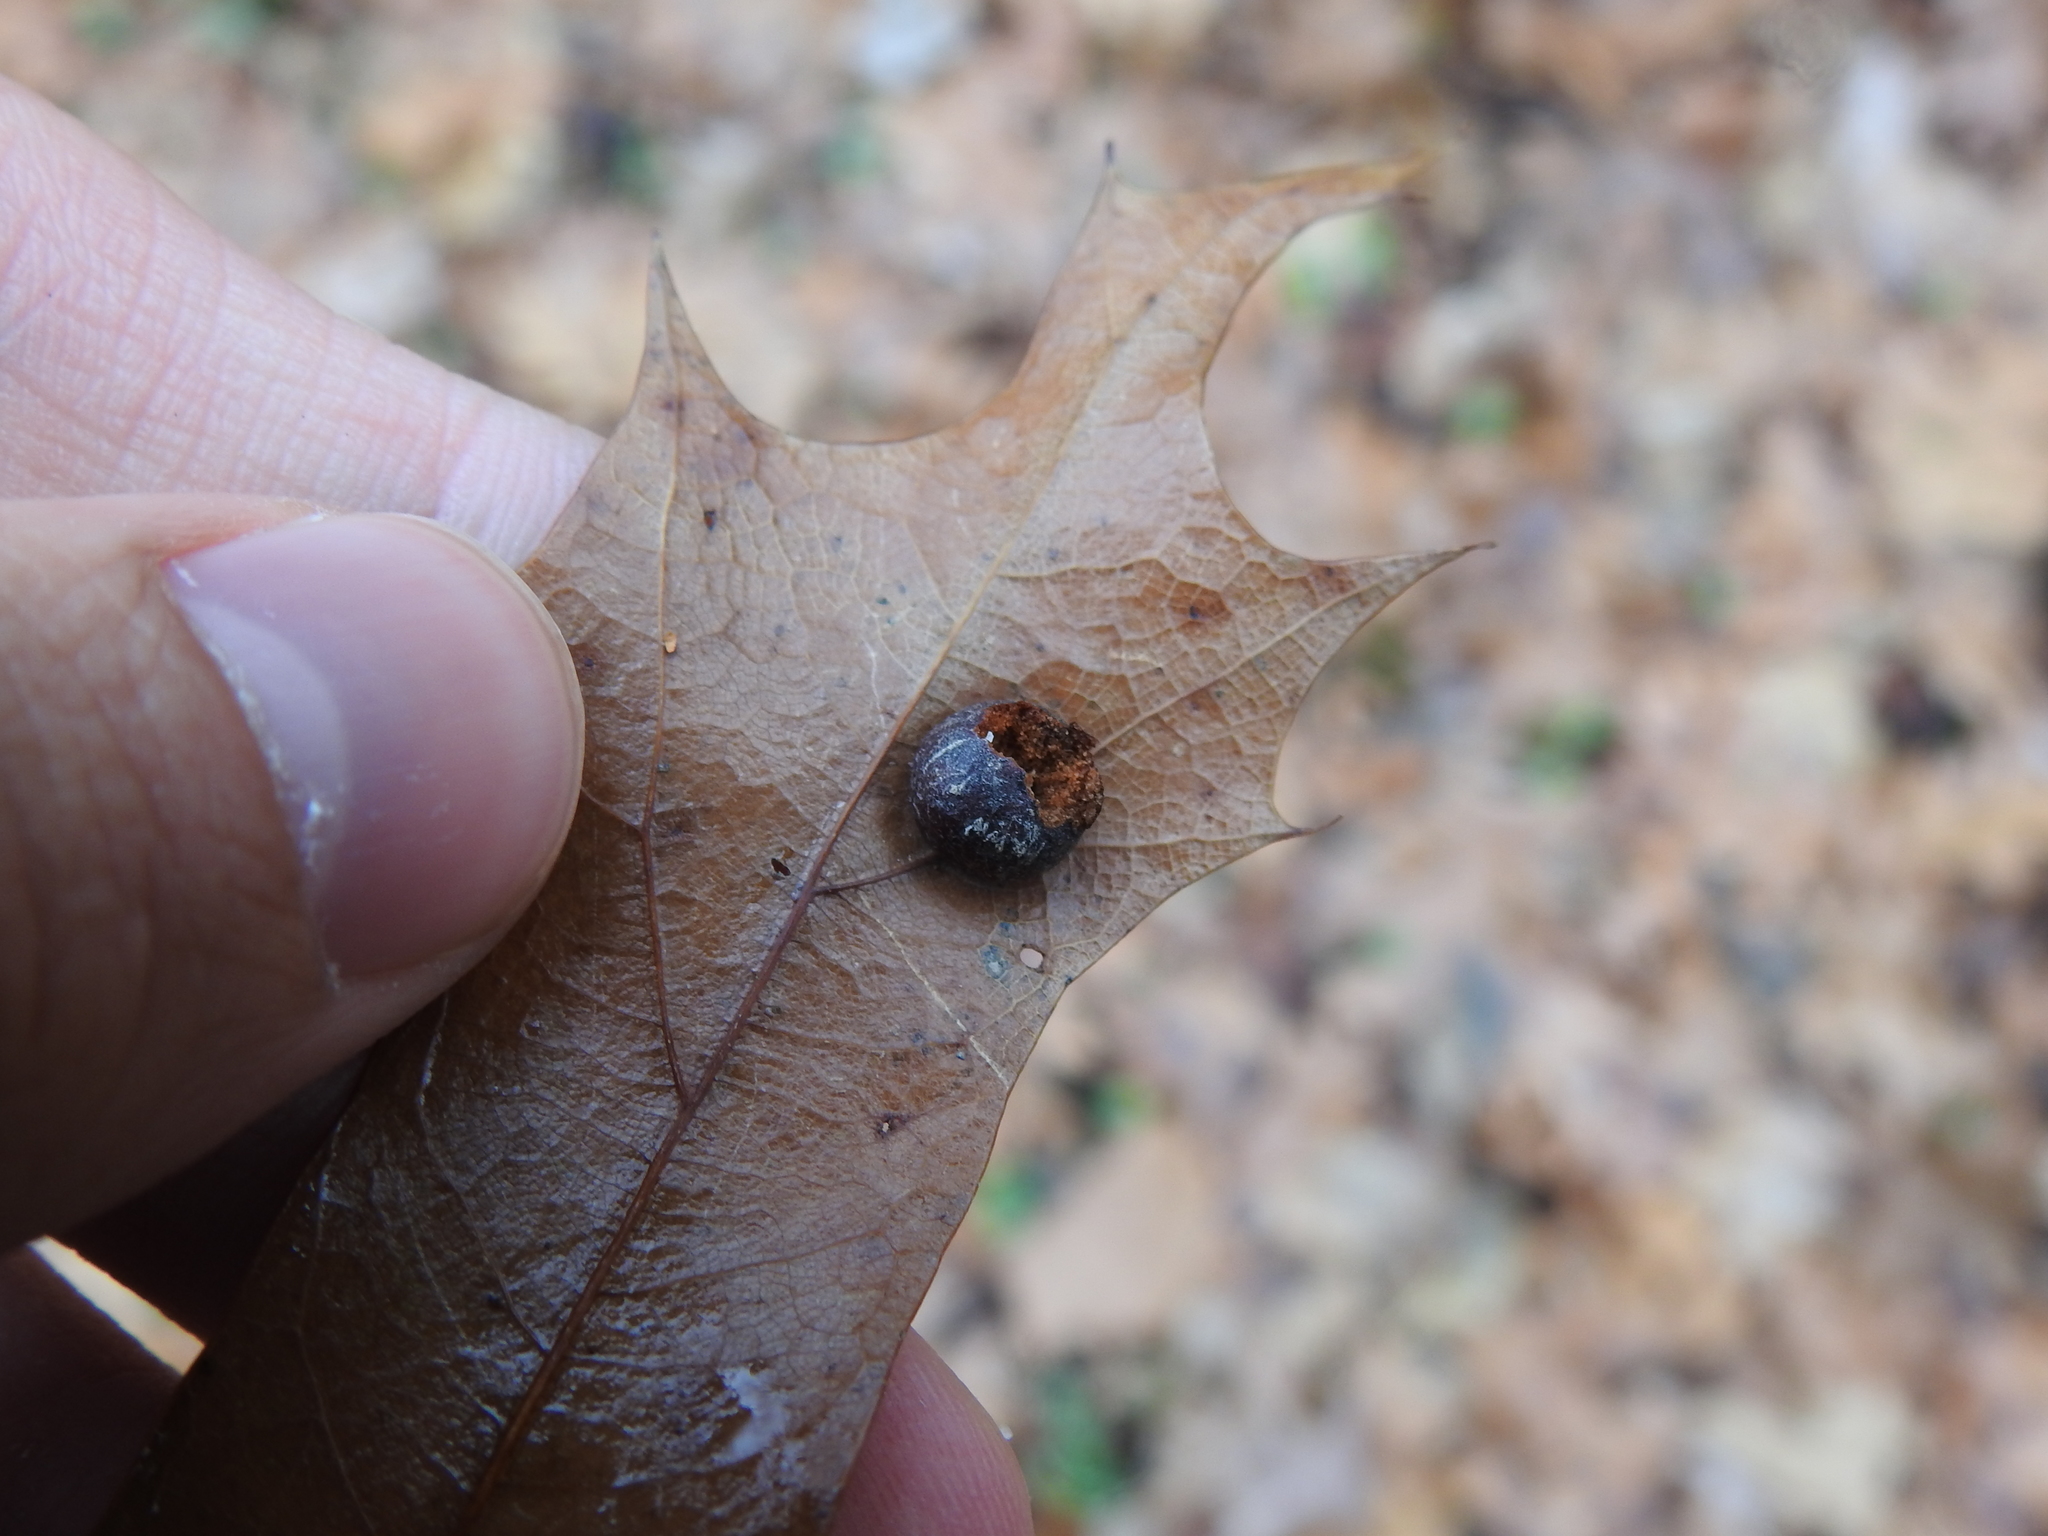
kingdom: Animalia
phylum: Arthropoda
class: Insecta
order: Diptera
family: Cecidomyiidae
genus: Polystepha
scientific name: Polystepha pilulae
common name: Oak leaf gall midge
